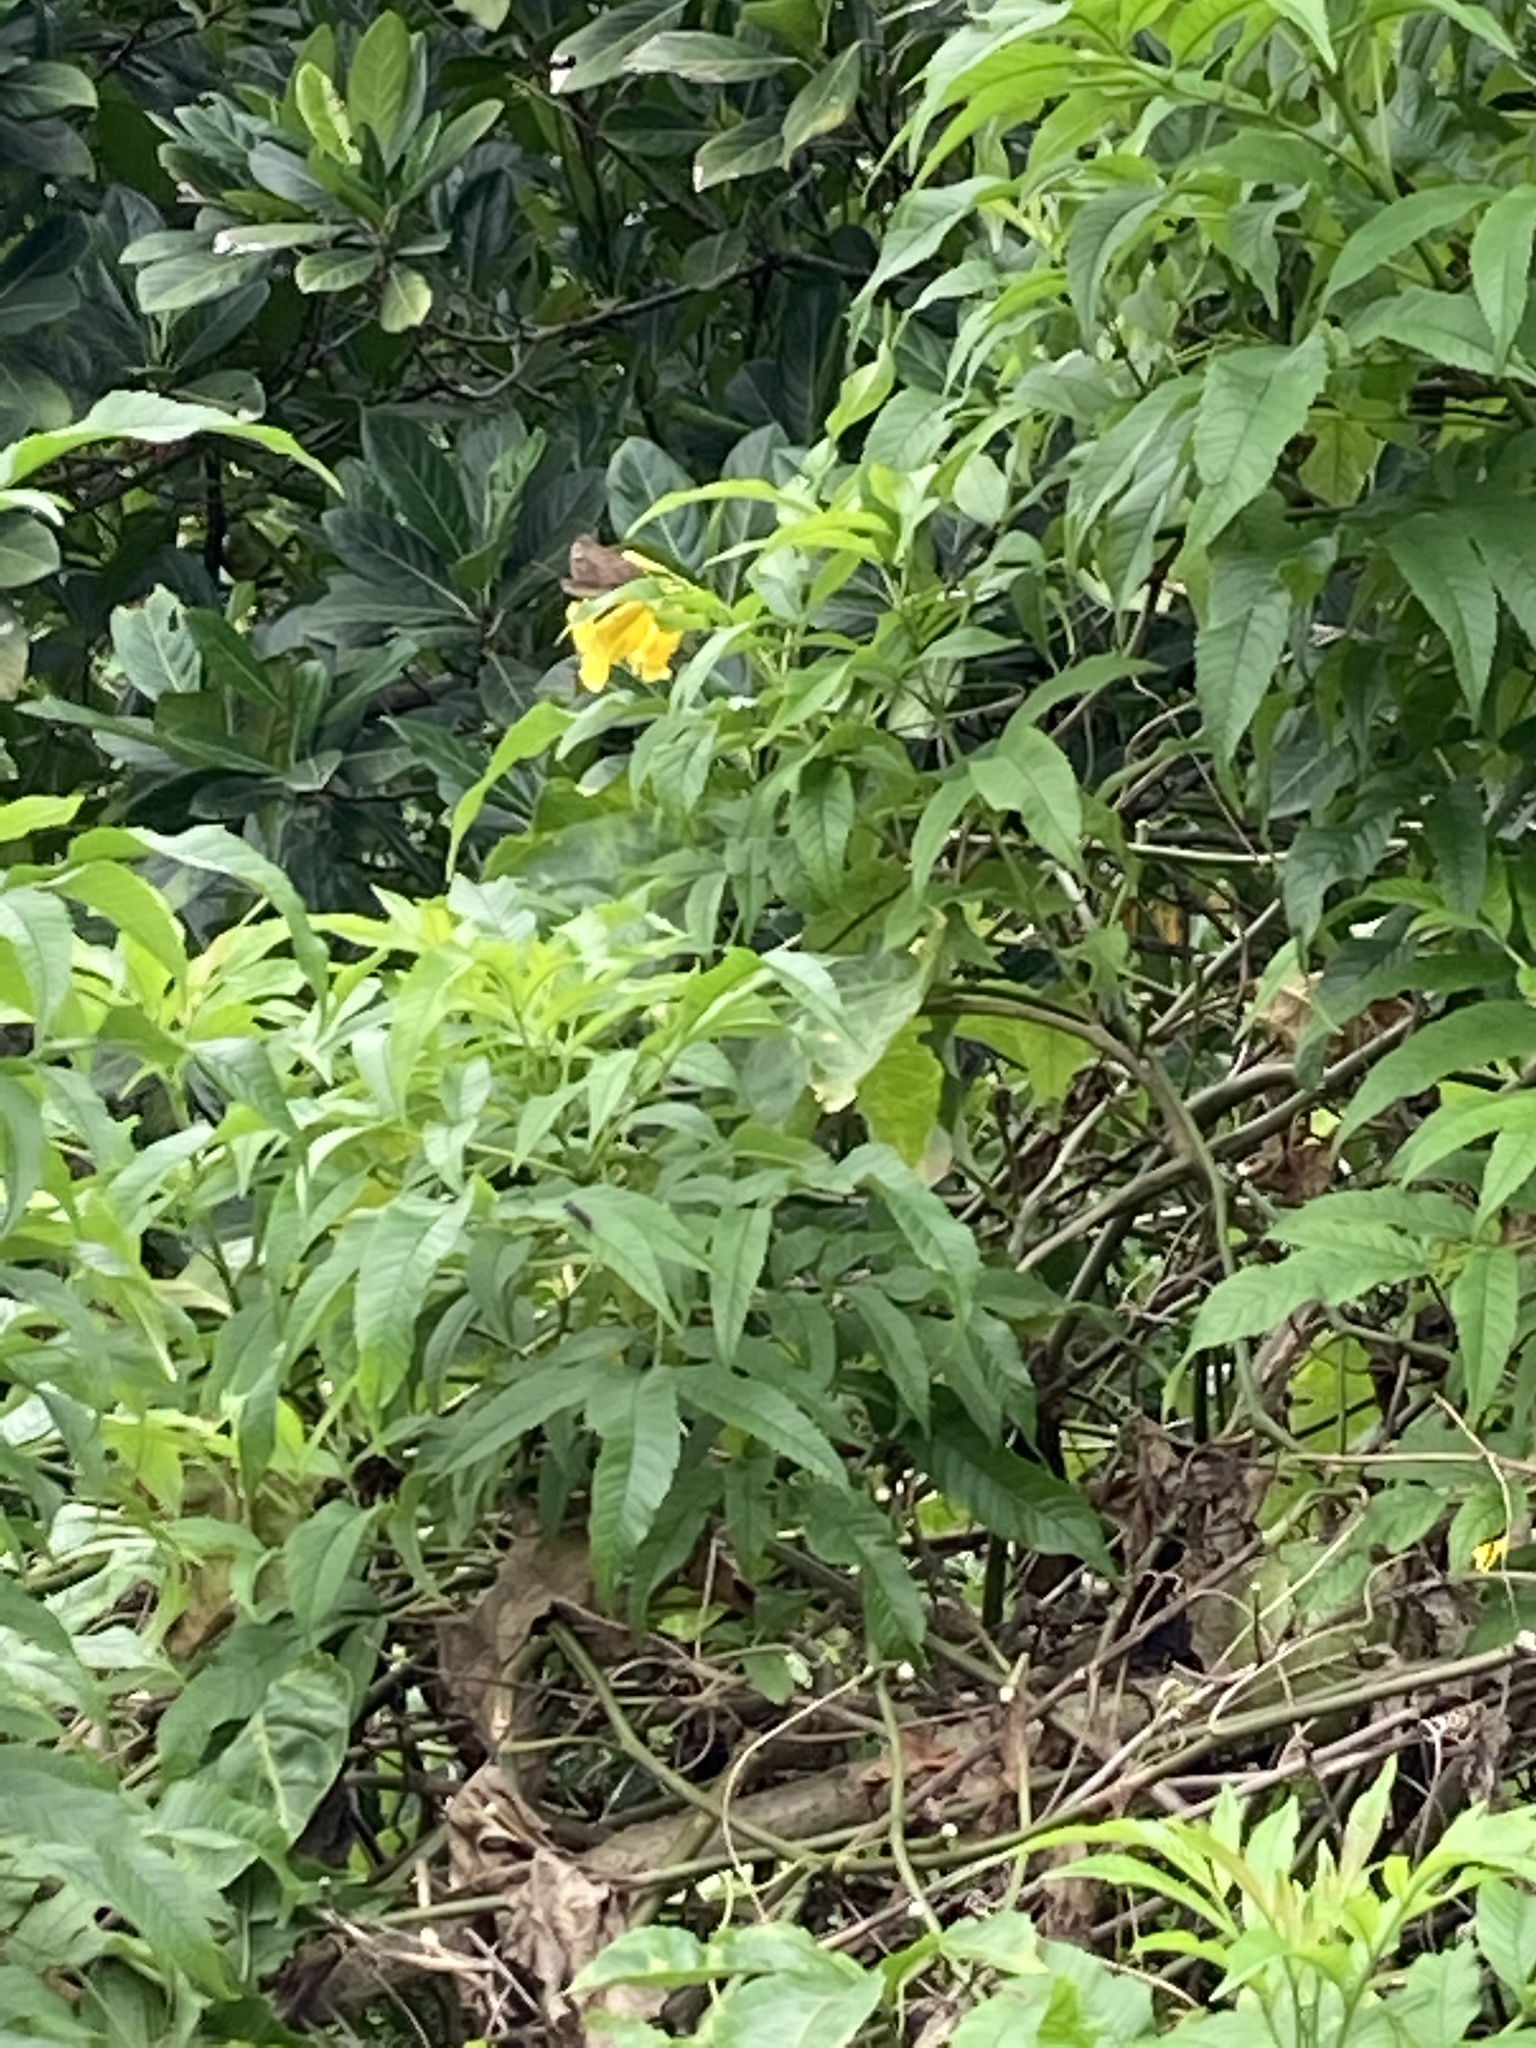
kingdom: Animalia
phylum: Arthropoda
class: Insecta
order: Lepidoptera
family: Nymphalidae
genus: Euthalia
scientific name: Euthalia aconthea
